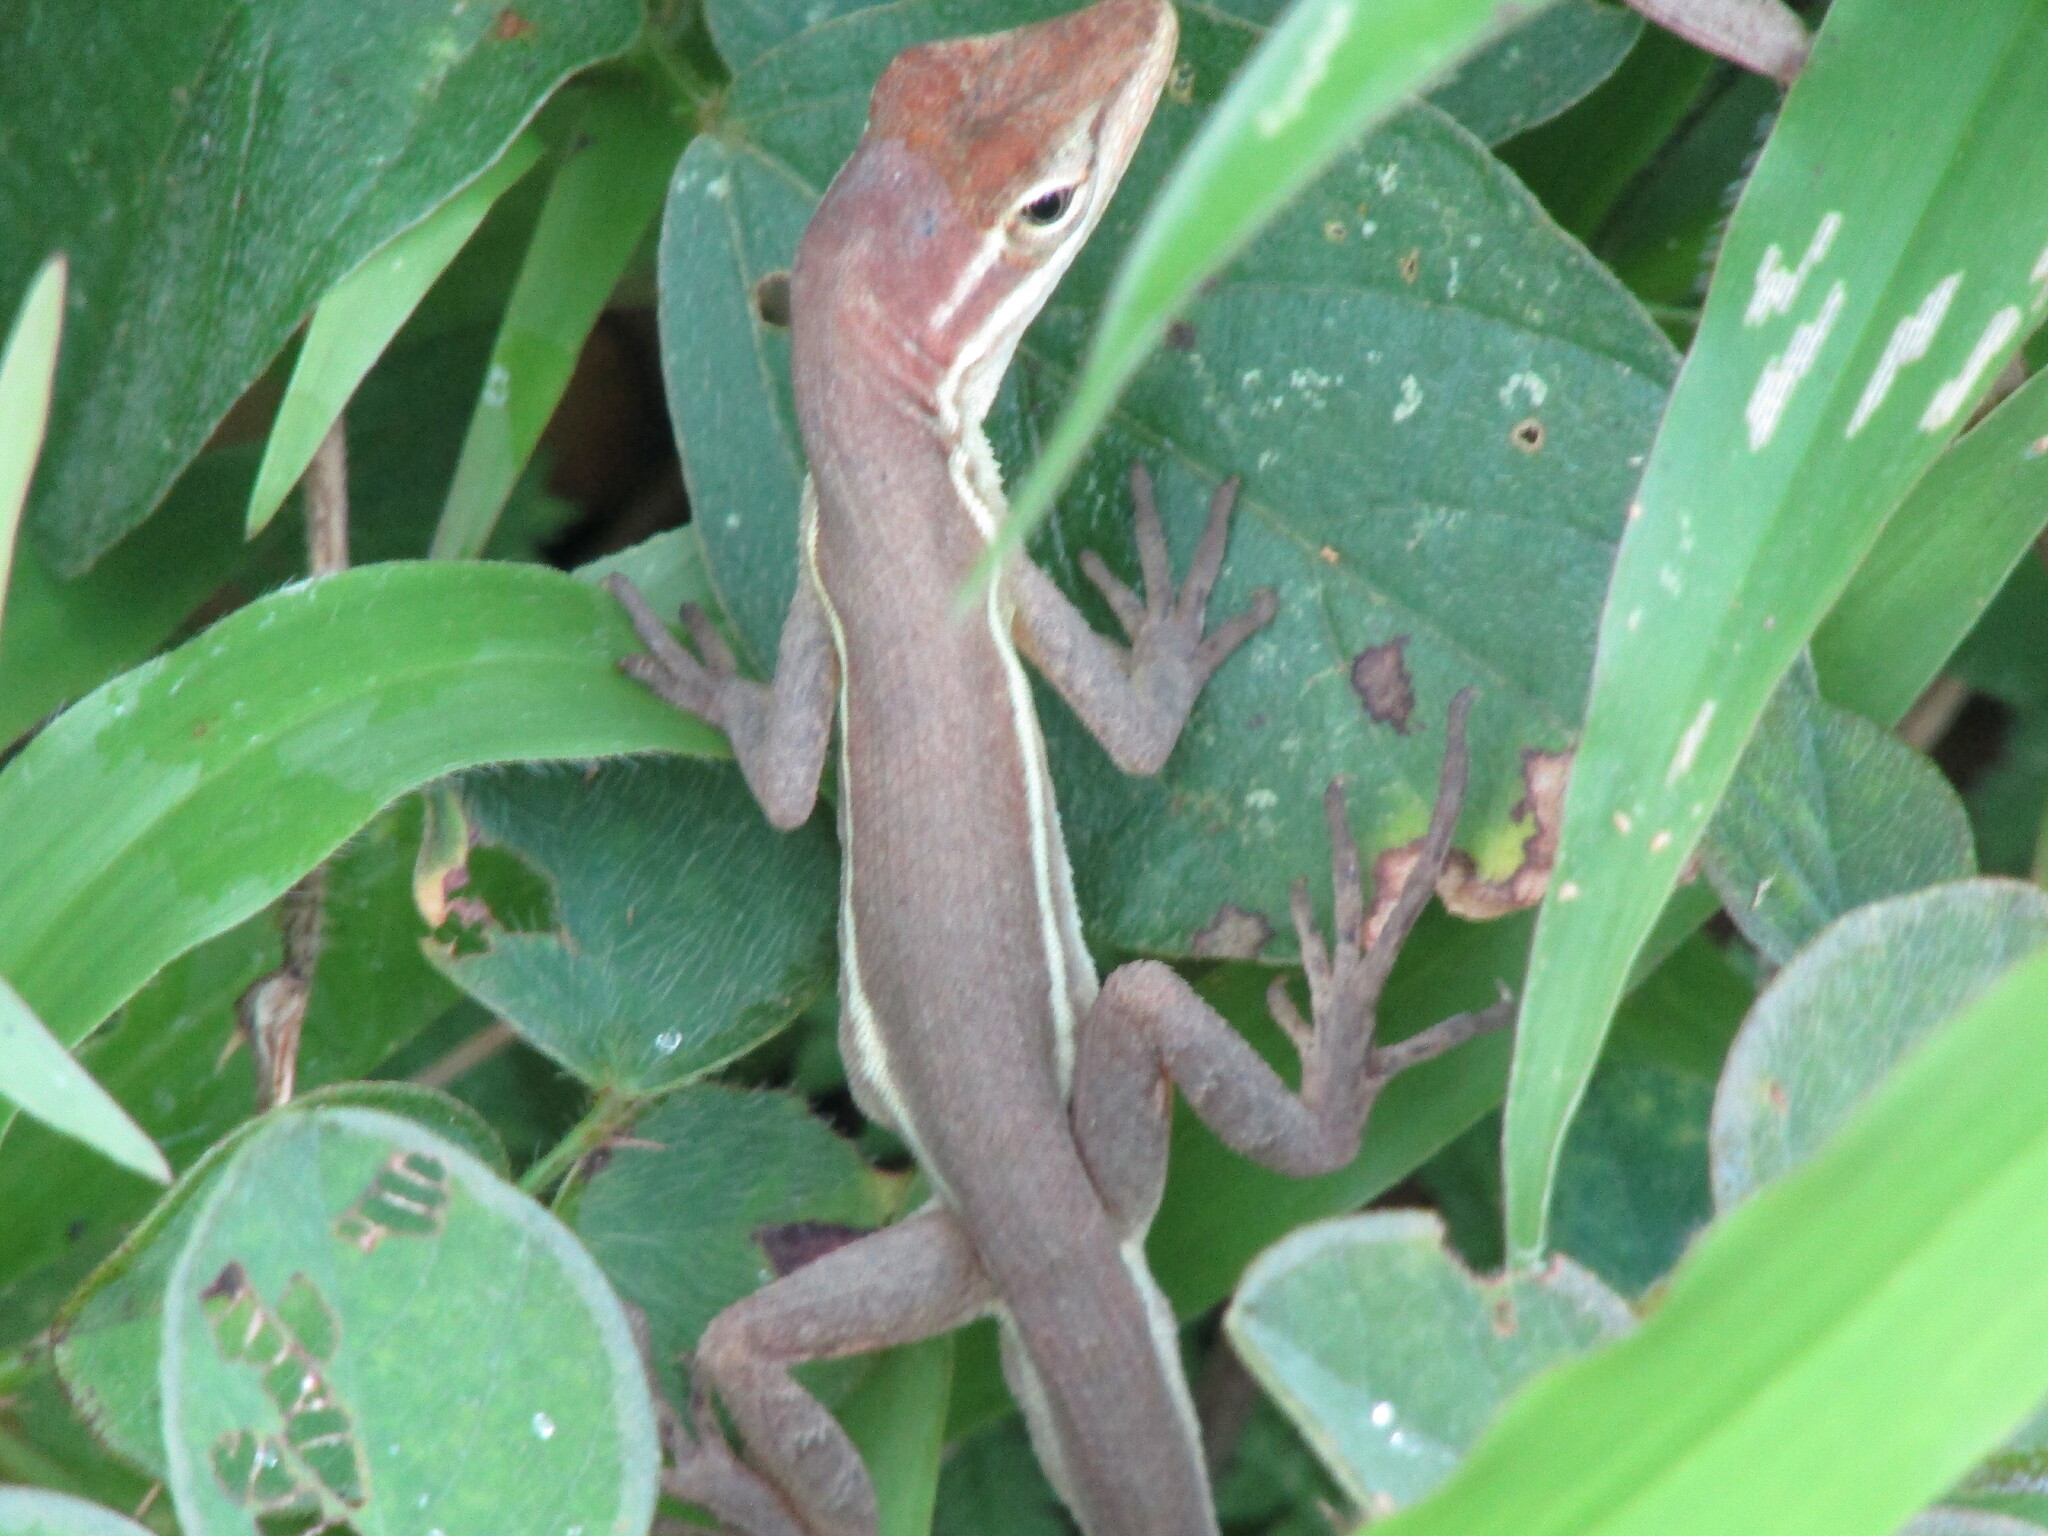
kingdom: Animalia
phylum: Chordata
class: Squamata
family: Dactyloidae
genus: Anolis
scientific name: Anolis auratus
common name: Grass anole
